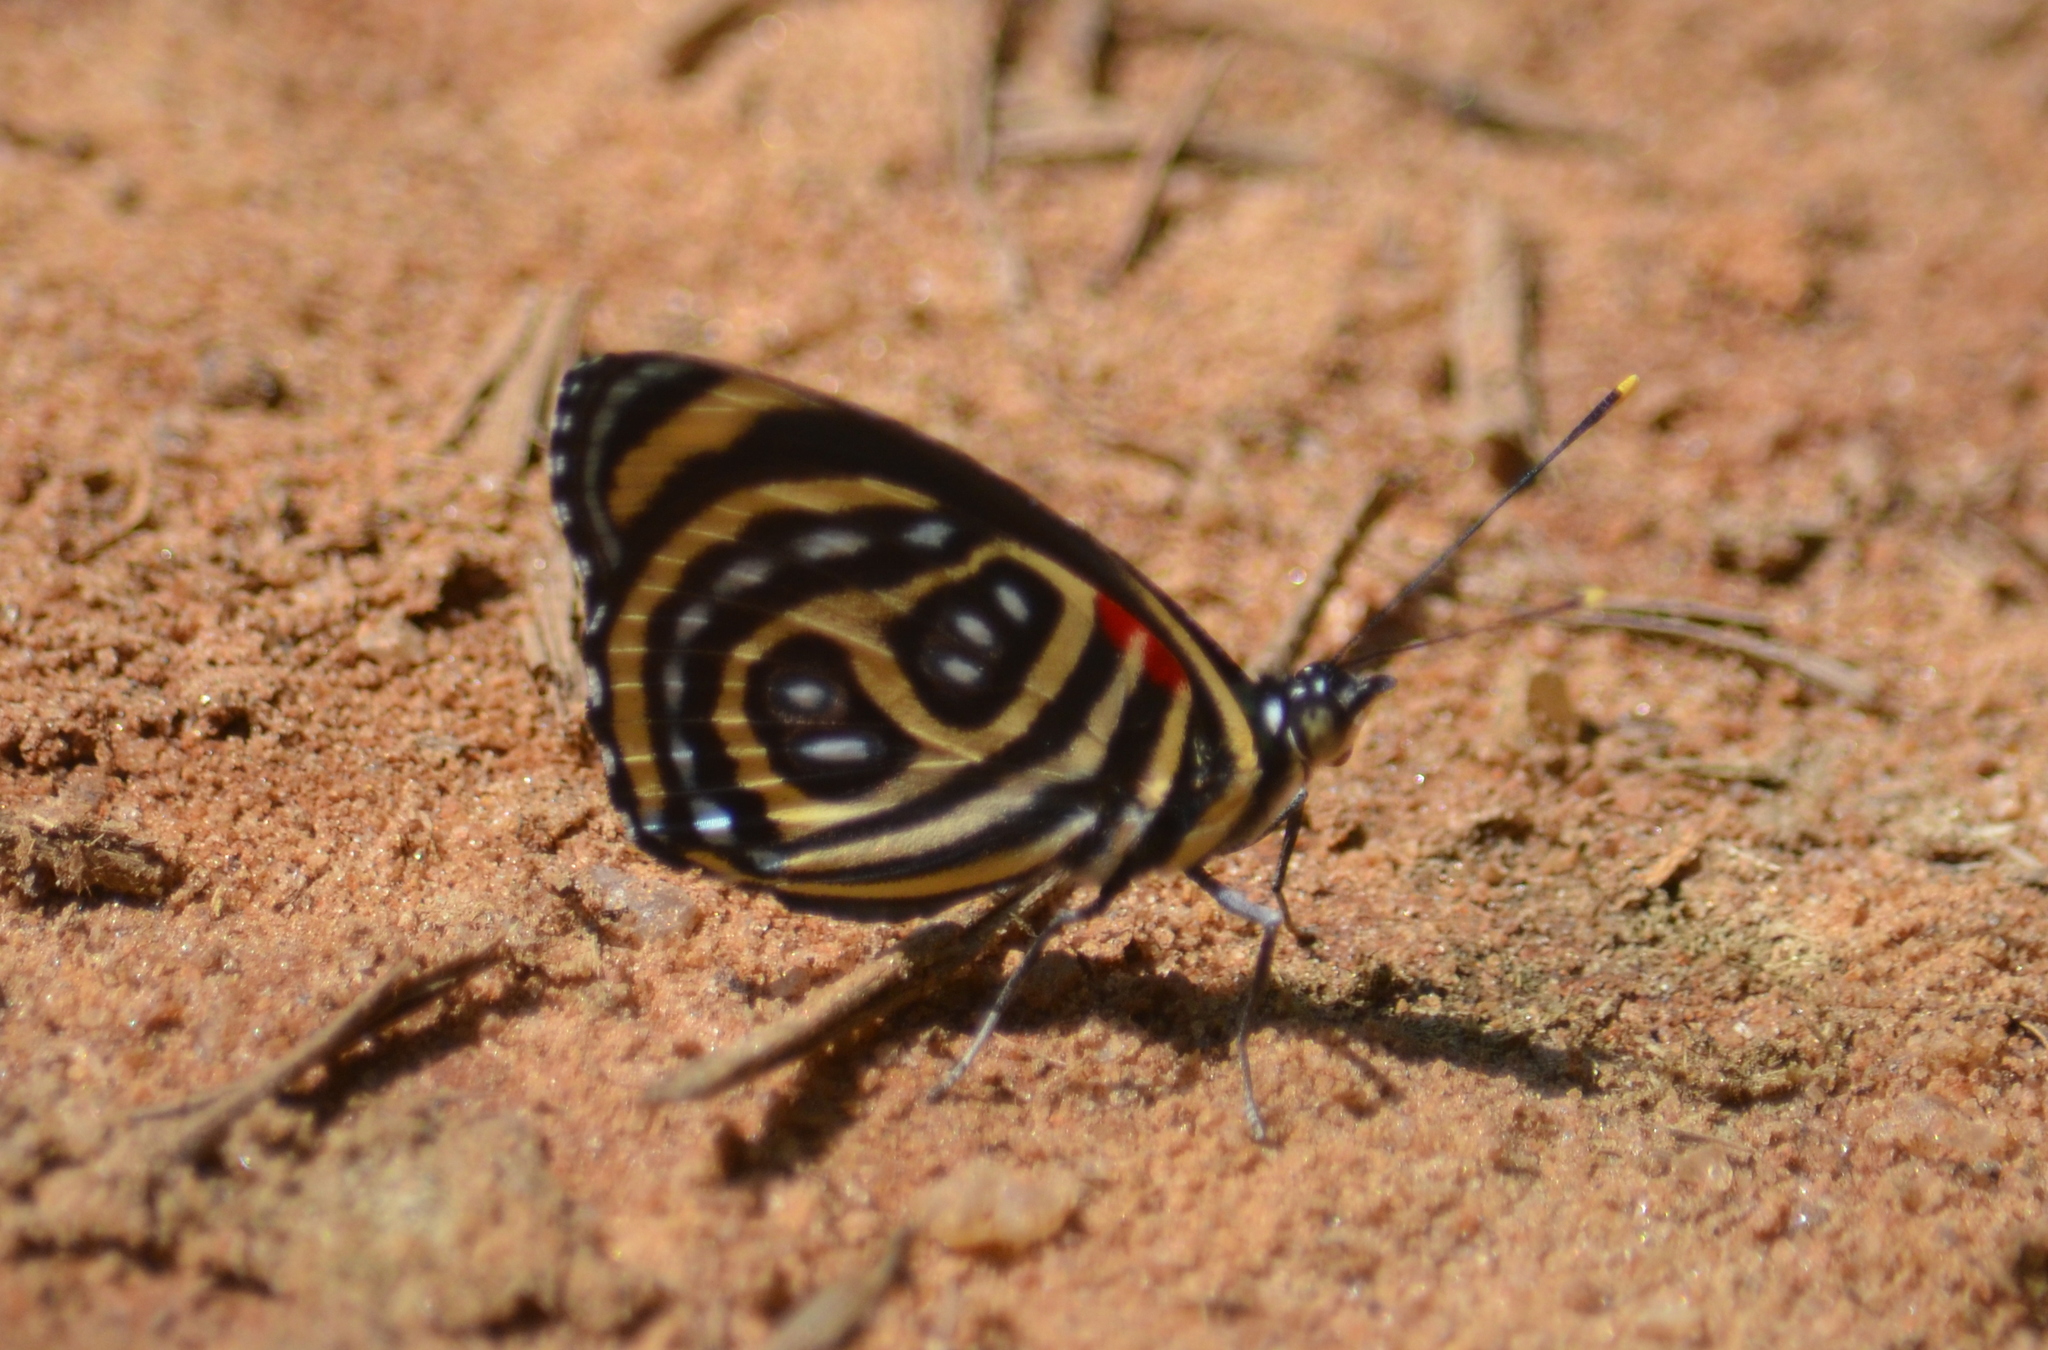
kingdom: Animalia
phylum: Arthropoda
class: Insecta
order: Lepidoptera
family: Nymphalidae
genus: Catagramma
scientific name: Catagramma pygas
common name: Godart's numberwing
